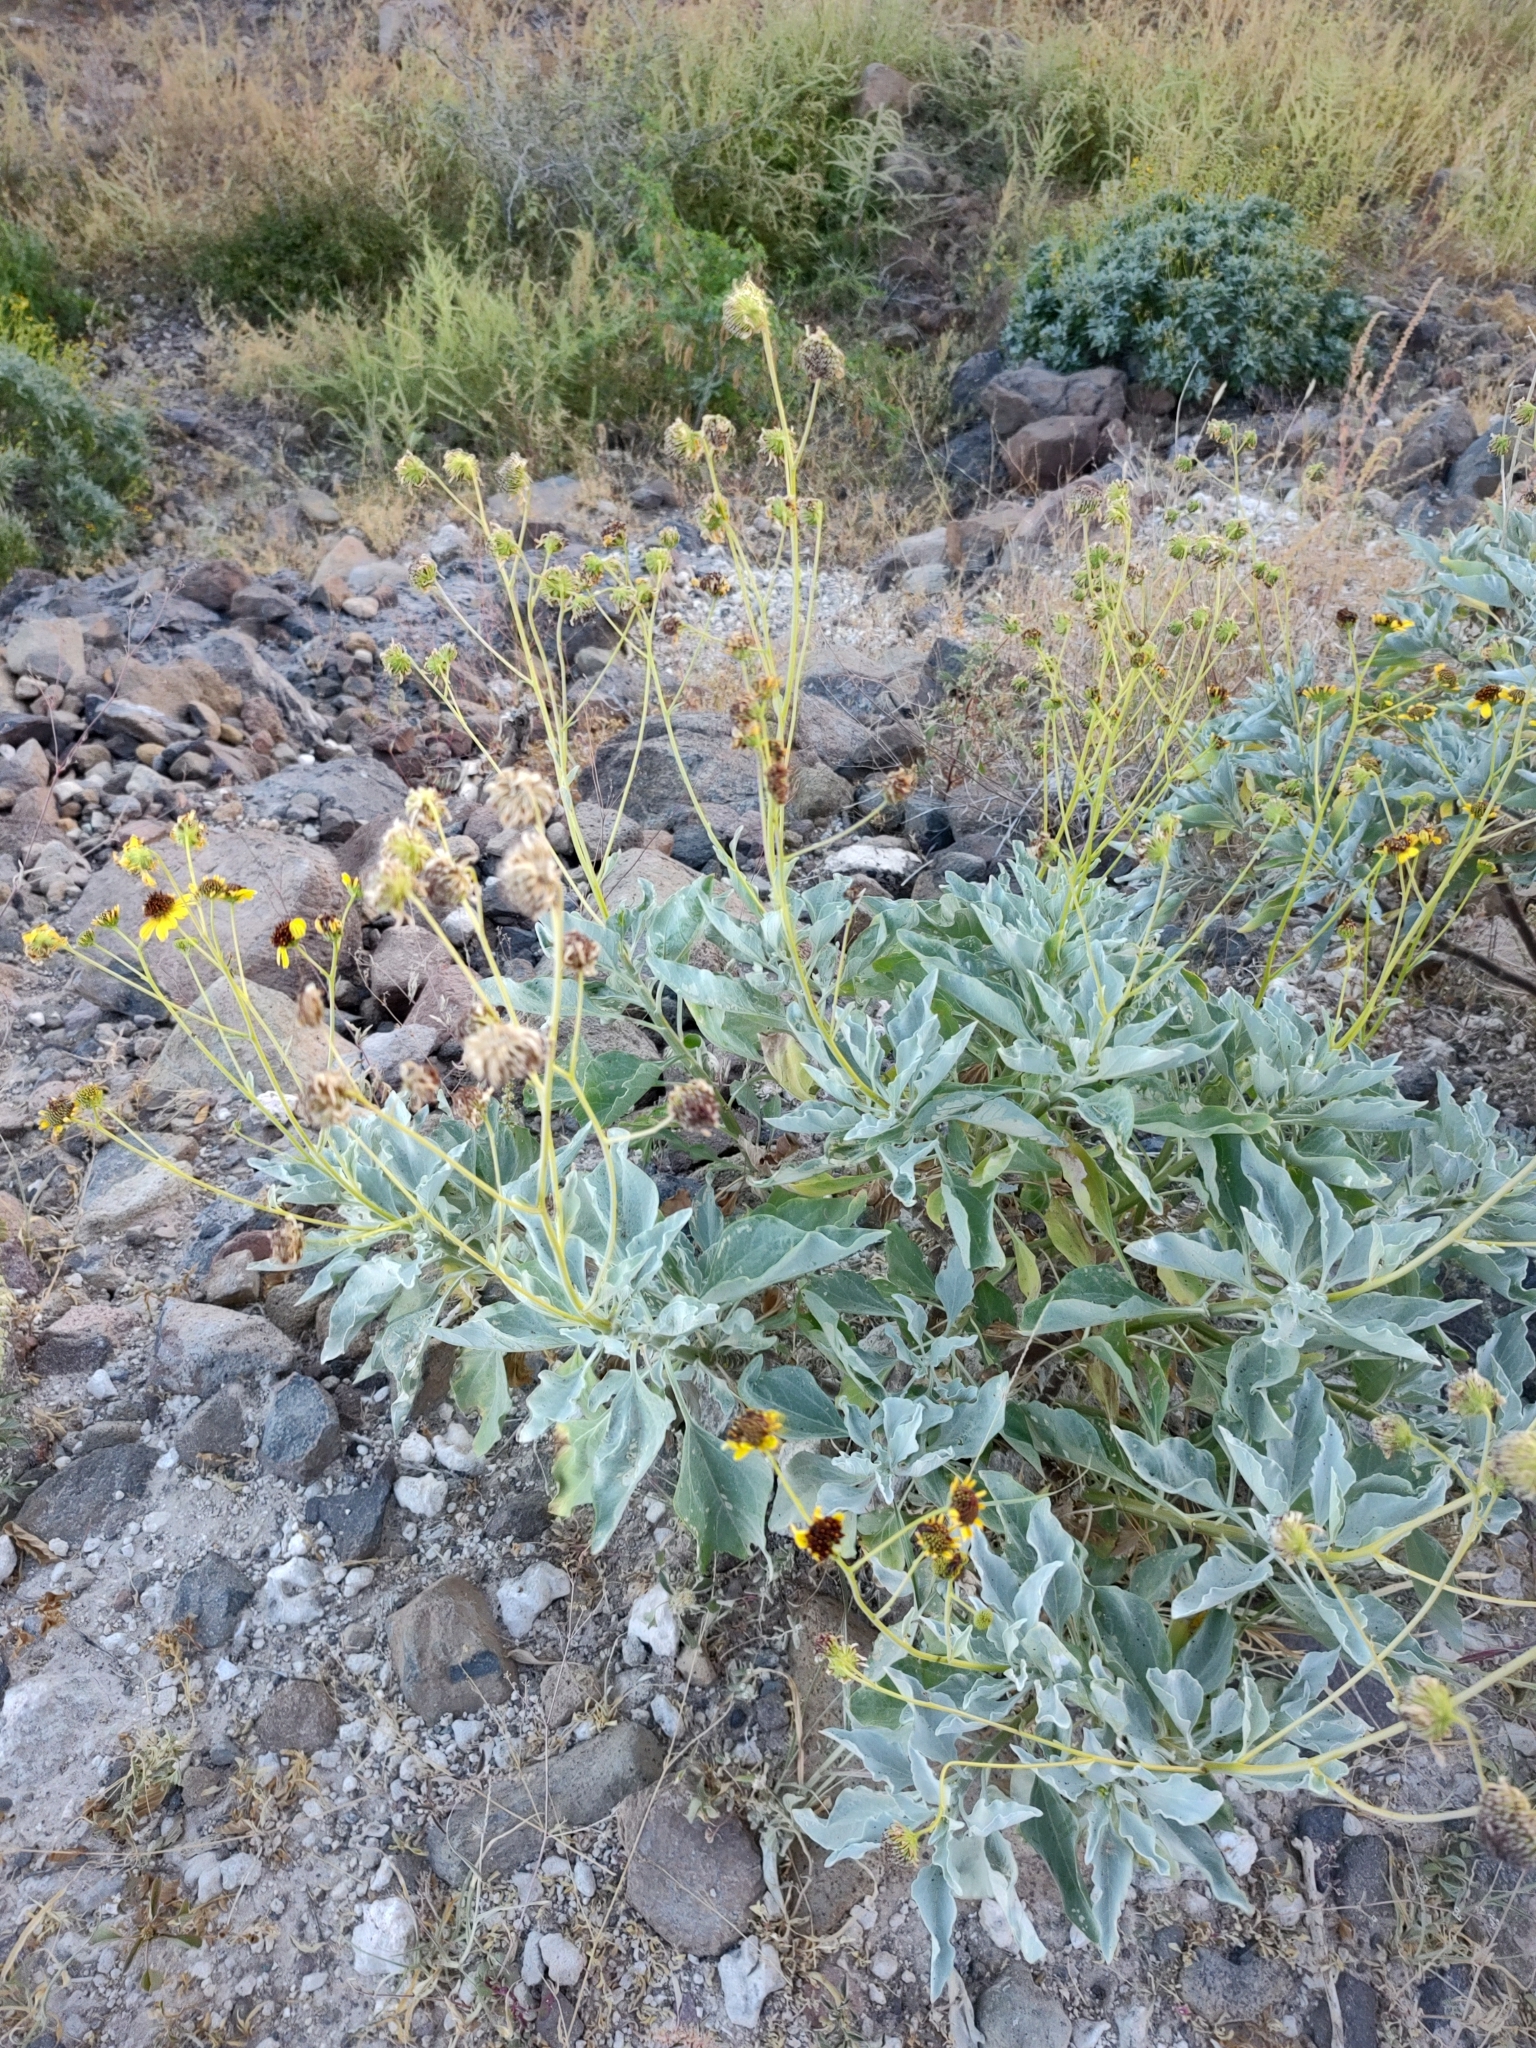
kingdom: Plantae
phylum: Tracheophyta
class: Magnoliopsida
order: Asterales
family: Asteraceae
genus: Encelia
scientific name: Encelia farinosa
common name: Brittlebush
